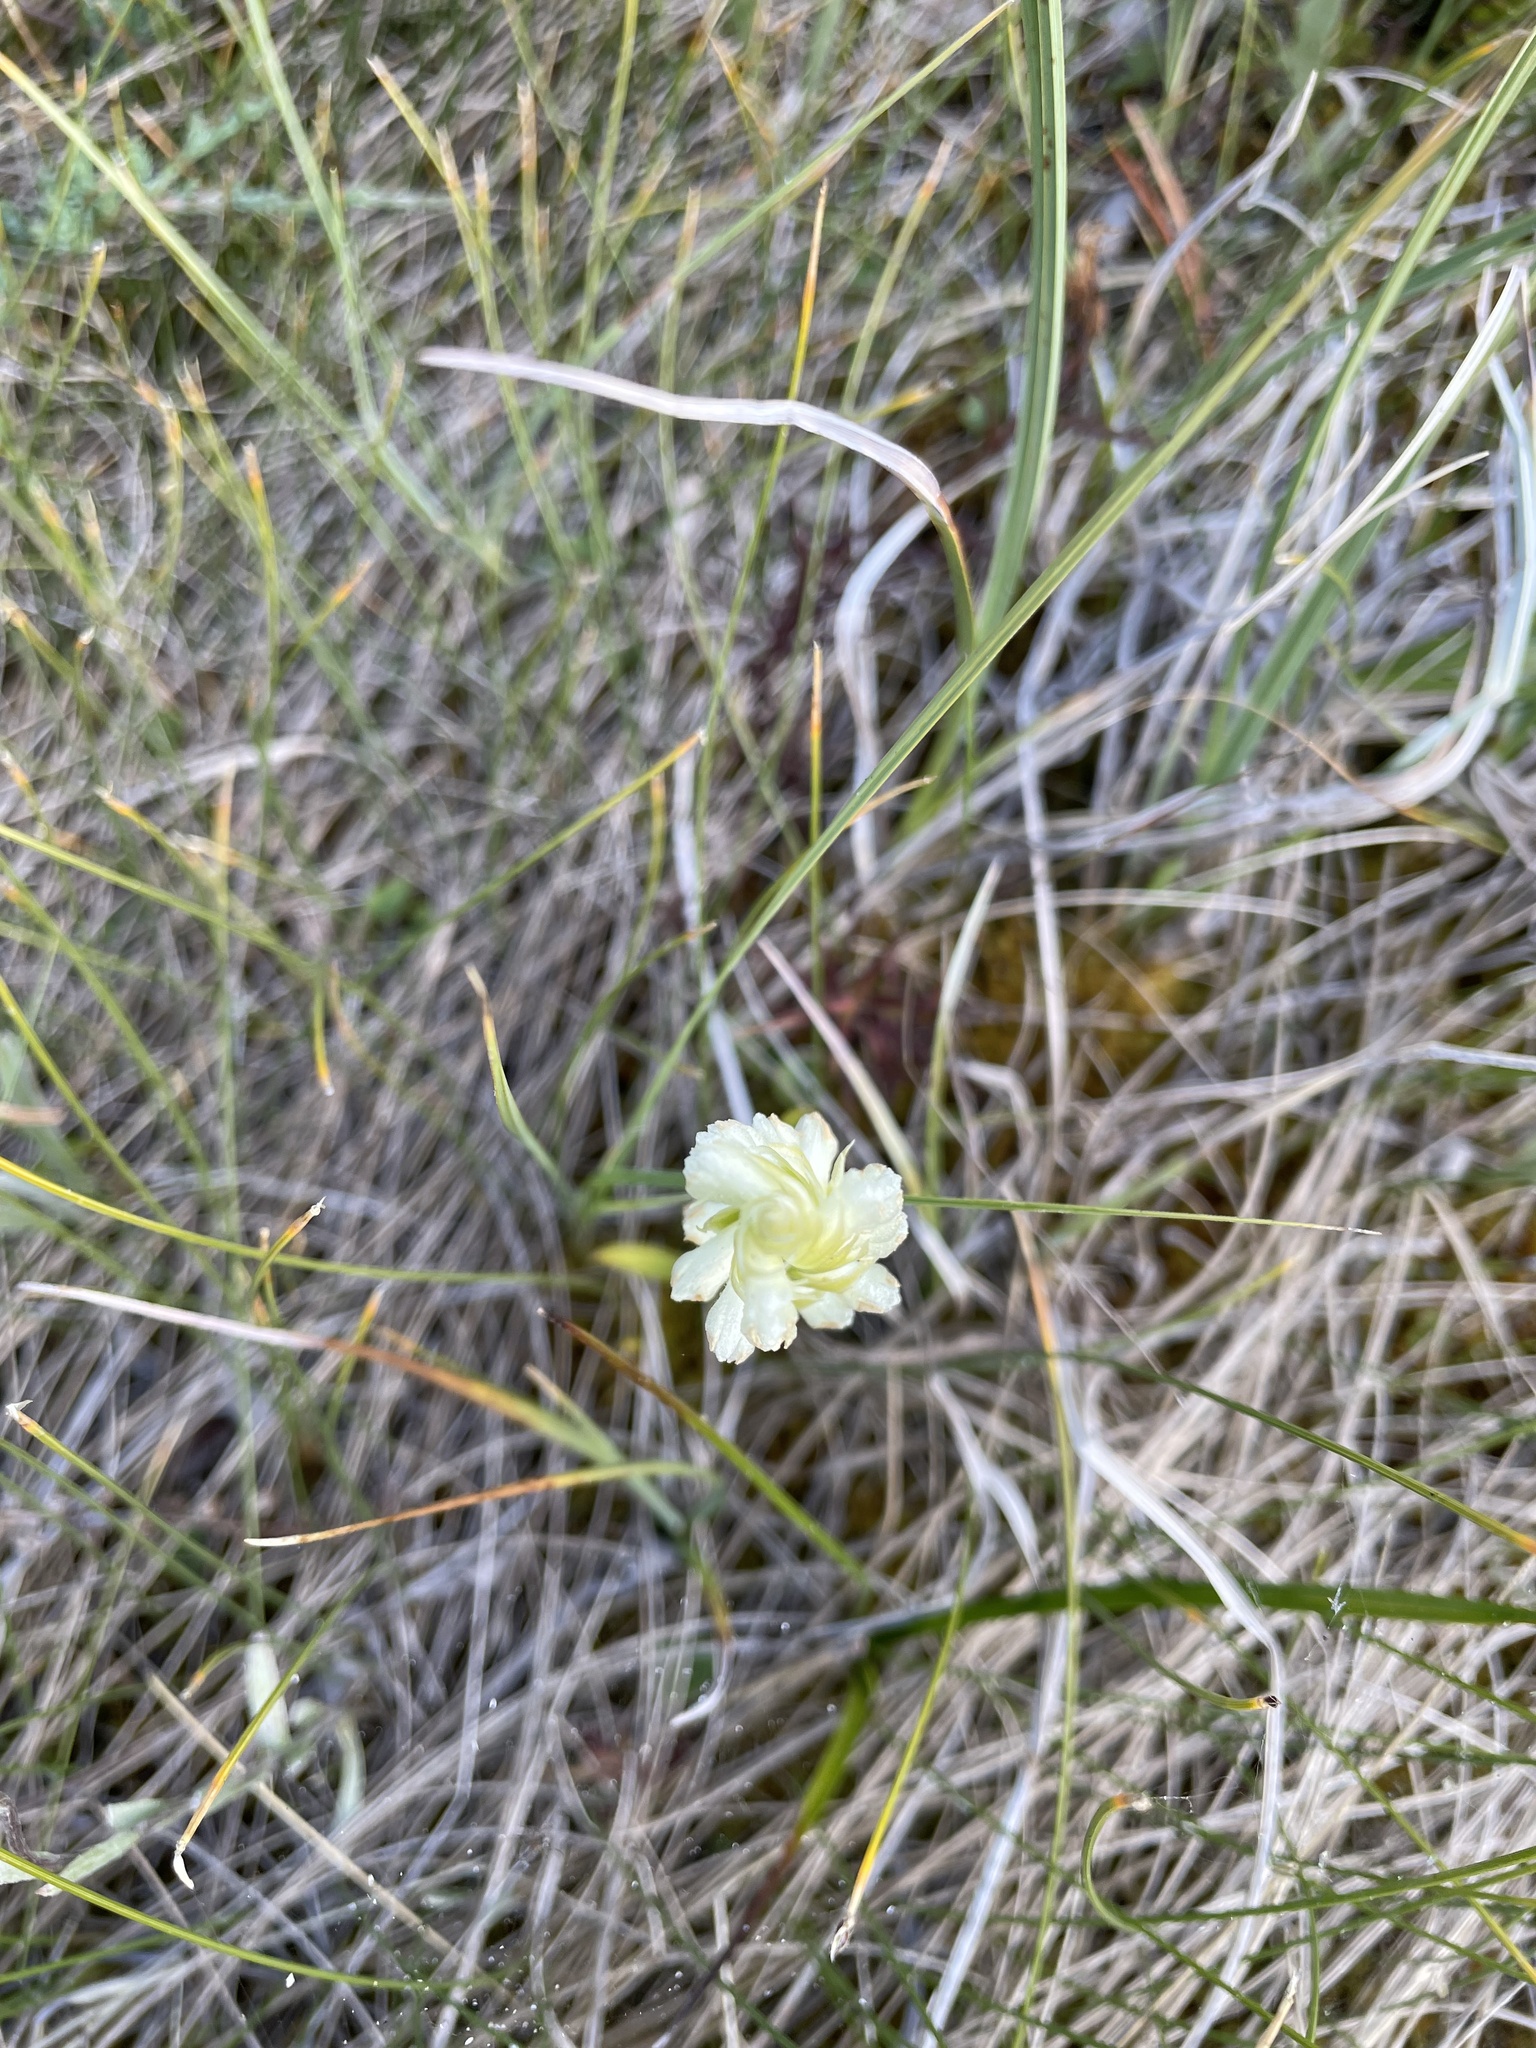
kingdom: Plantae
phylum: Tracheophyta
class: Liliopsida
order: Asparagales
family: Orchidaceae
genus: Spiranthes
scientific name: Spiranthes romanzoffiana
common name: Irish lady's-tresses
